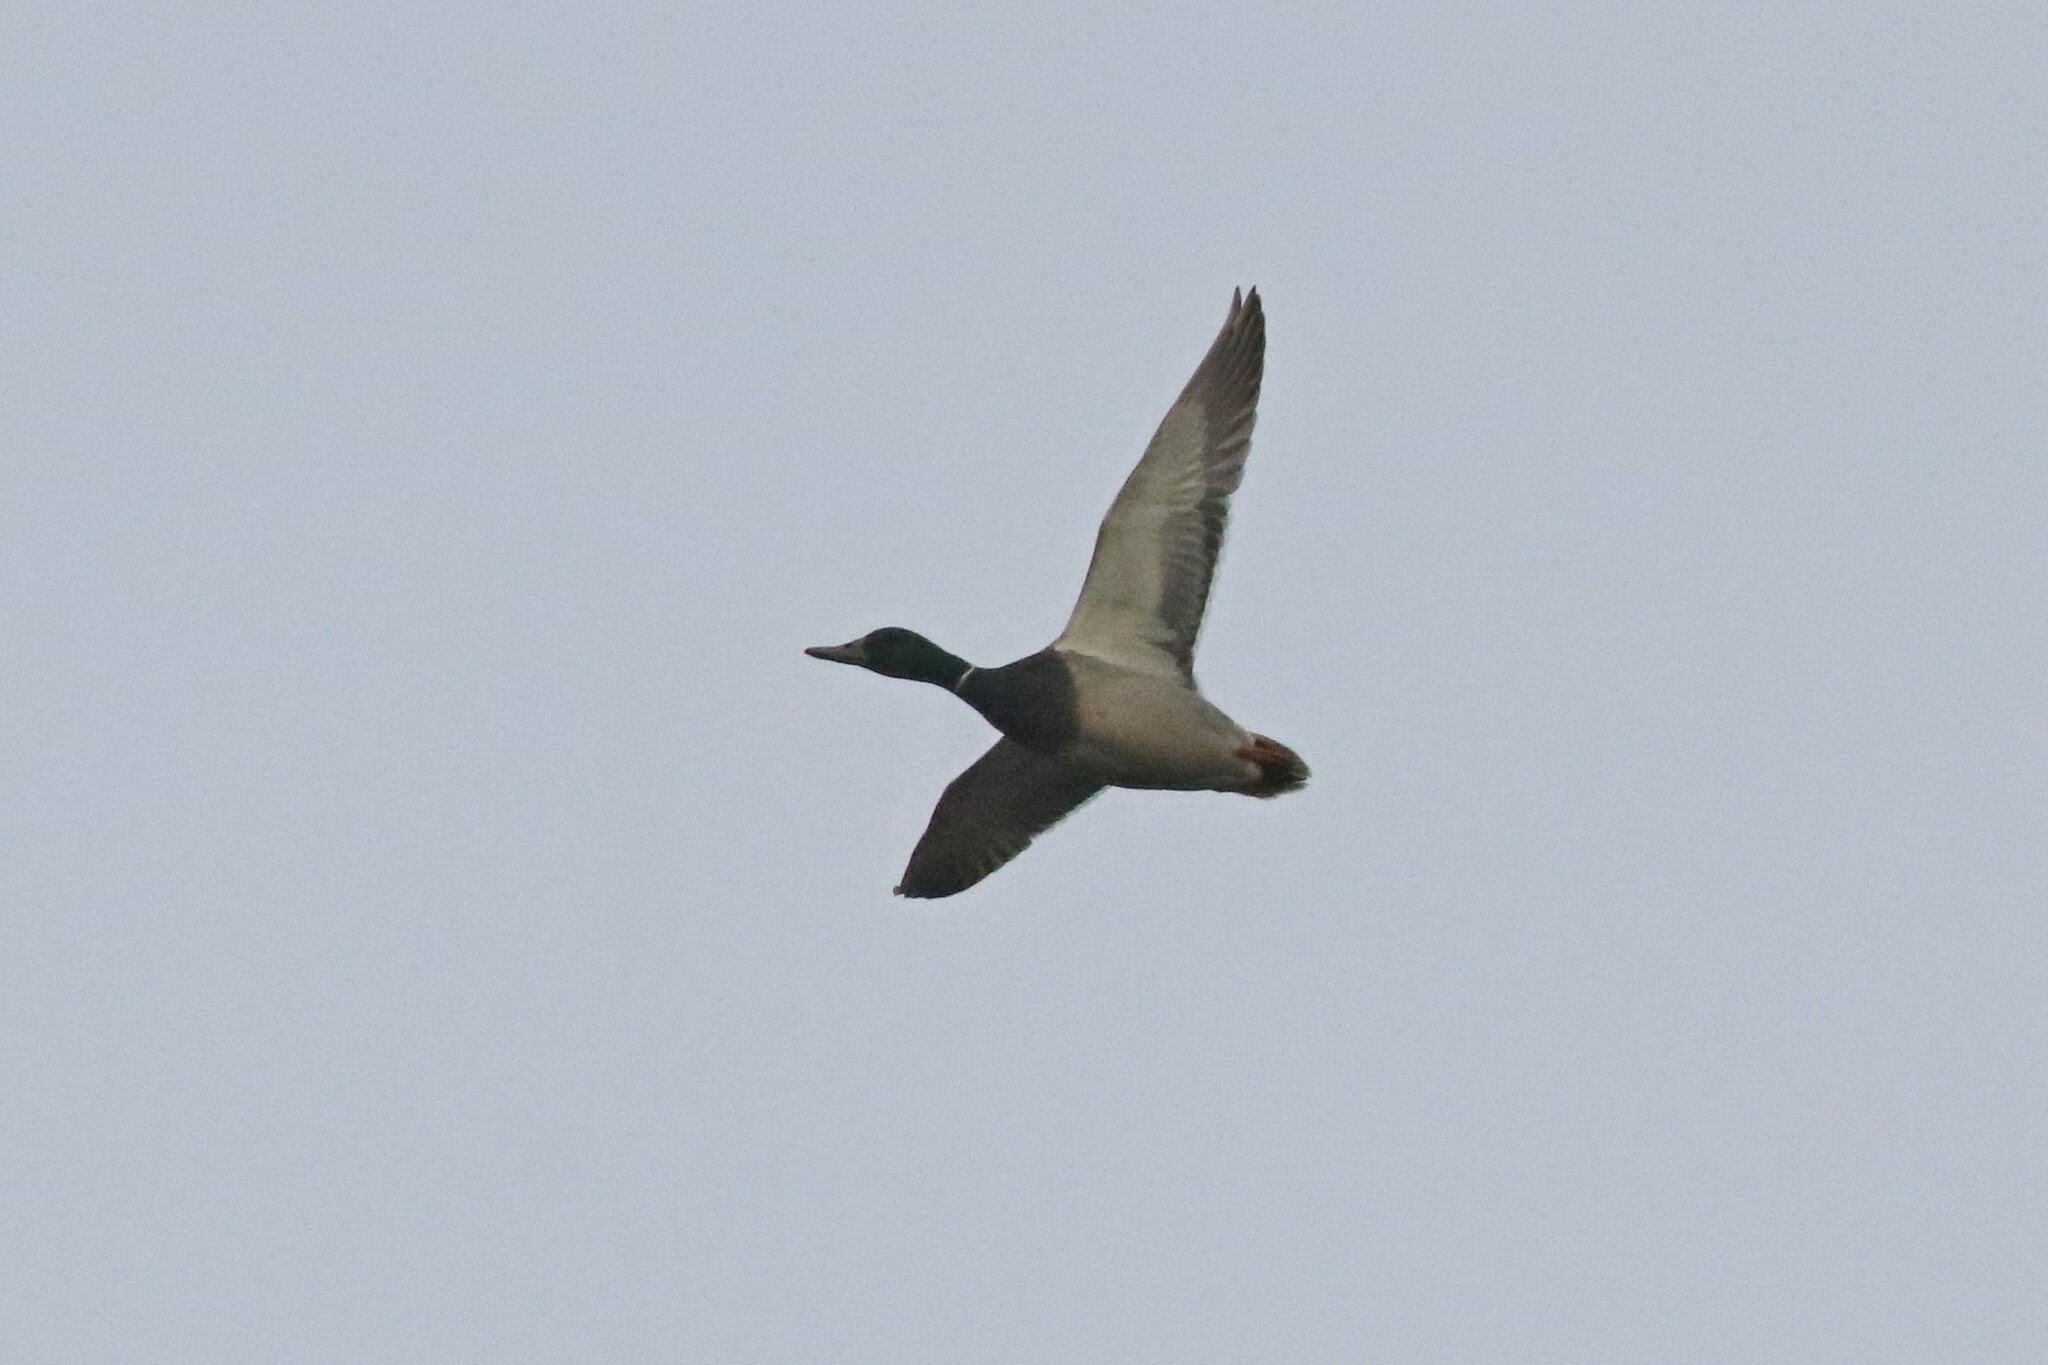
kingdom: Animalia
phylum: Chordata
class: Aves
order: Anseriformes
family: Anatidae
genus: Anas
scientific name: Anas platyrhynchos
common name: Mallard
